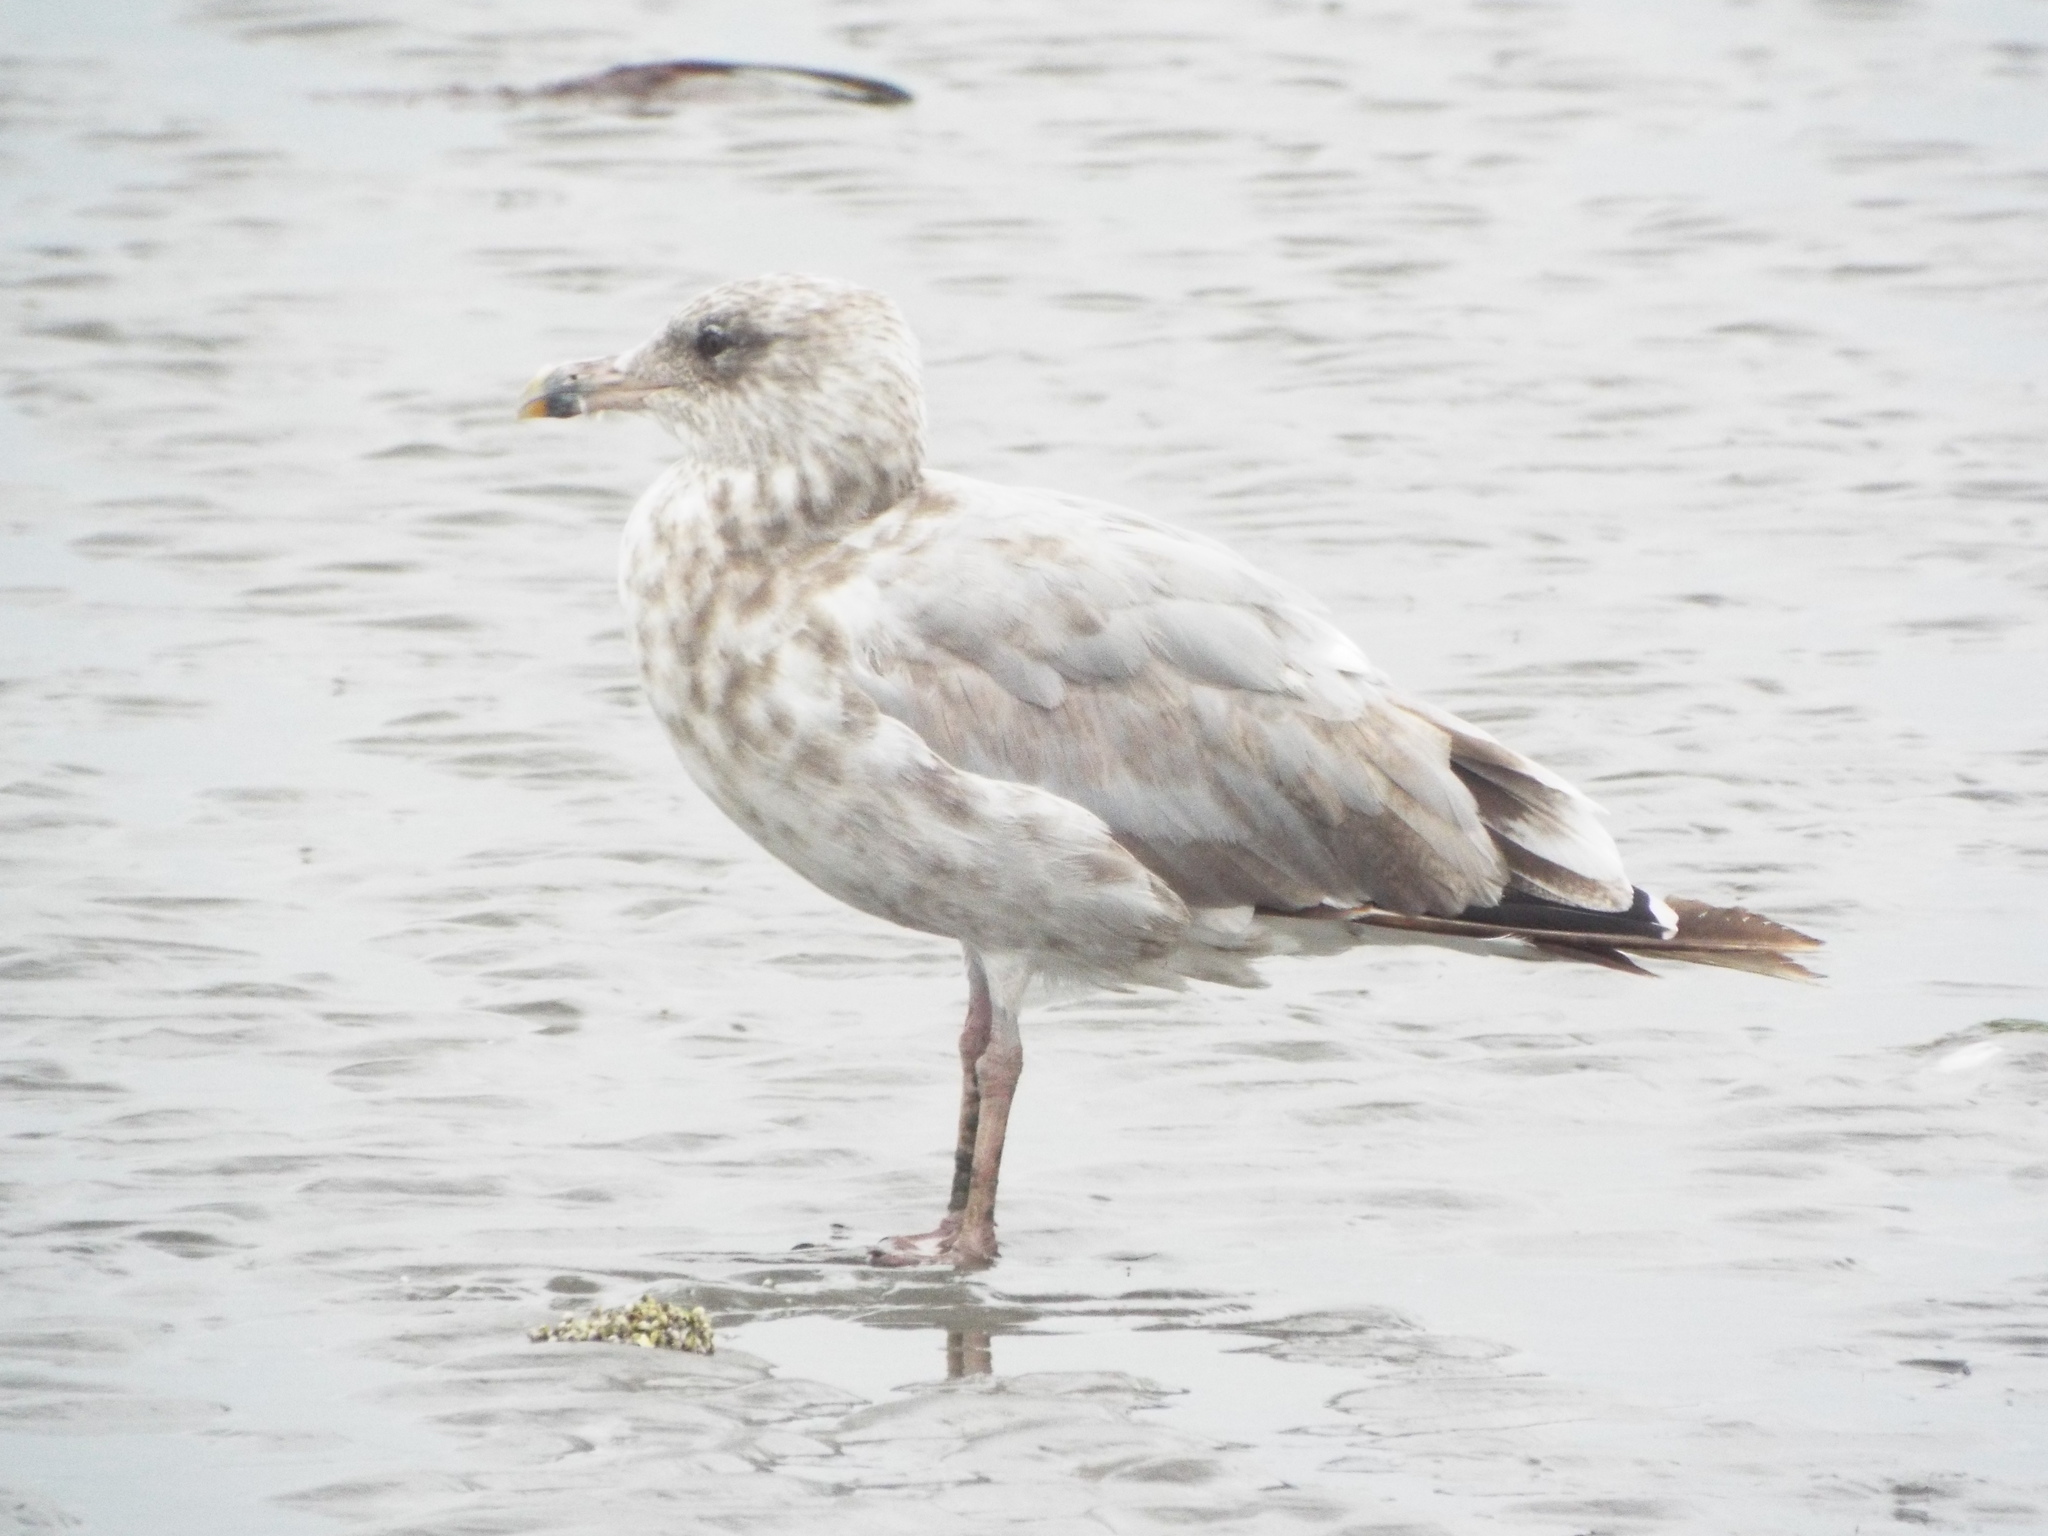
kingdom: Animalia
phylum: Chordata
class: Aves
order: Charadriiformes
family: Laridae
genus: Larus
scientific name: Larus argentatus
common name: Herring gull
